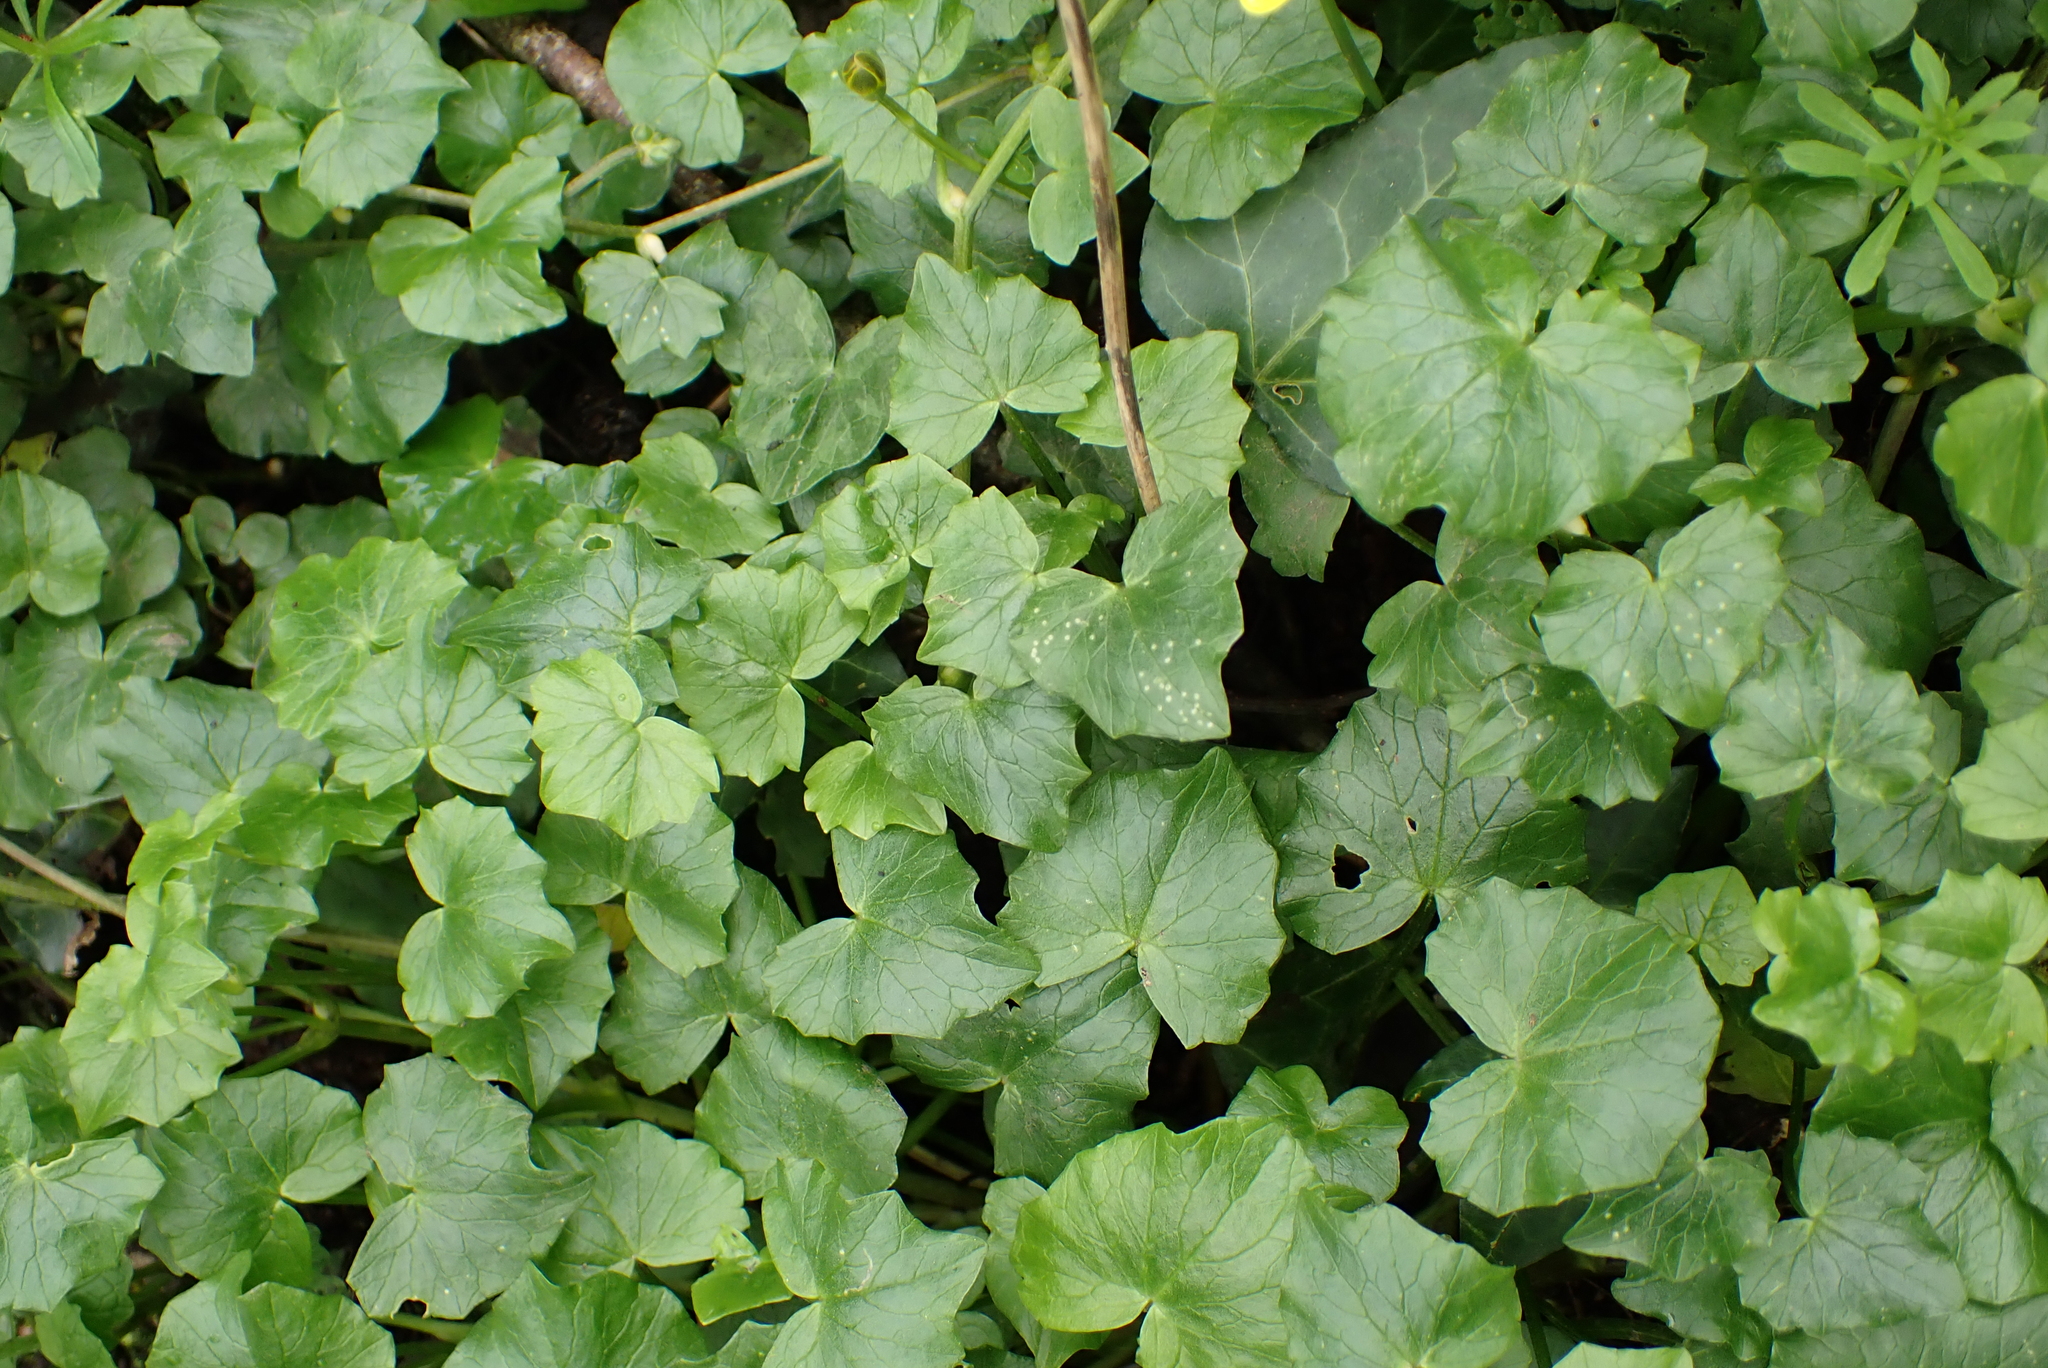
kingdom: Plantae
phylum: Tracheophyta
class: Magnoliopsida
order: Ranunculales
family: Ranunculaceae
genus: Ficaria
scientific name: Ficaria verna
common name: Lesser celandine
